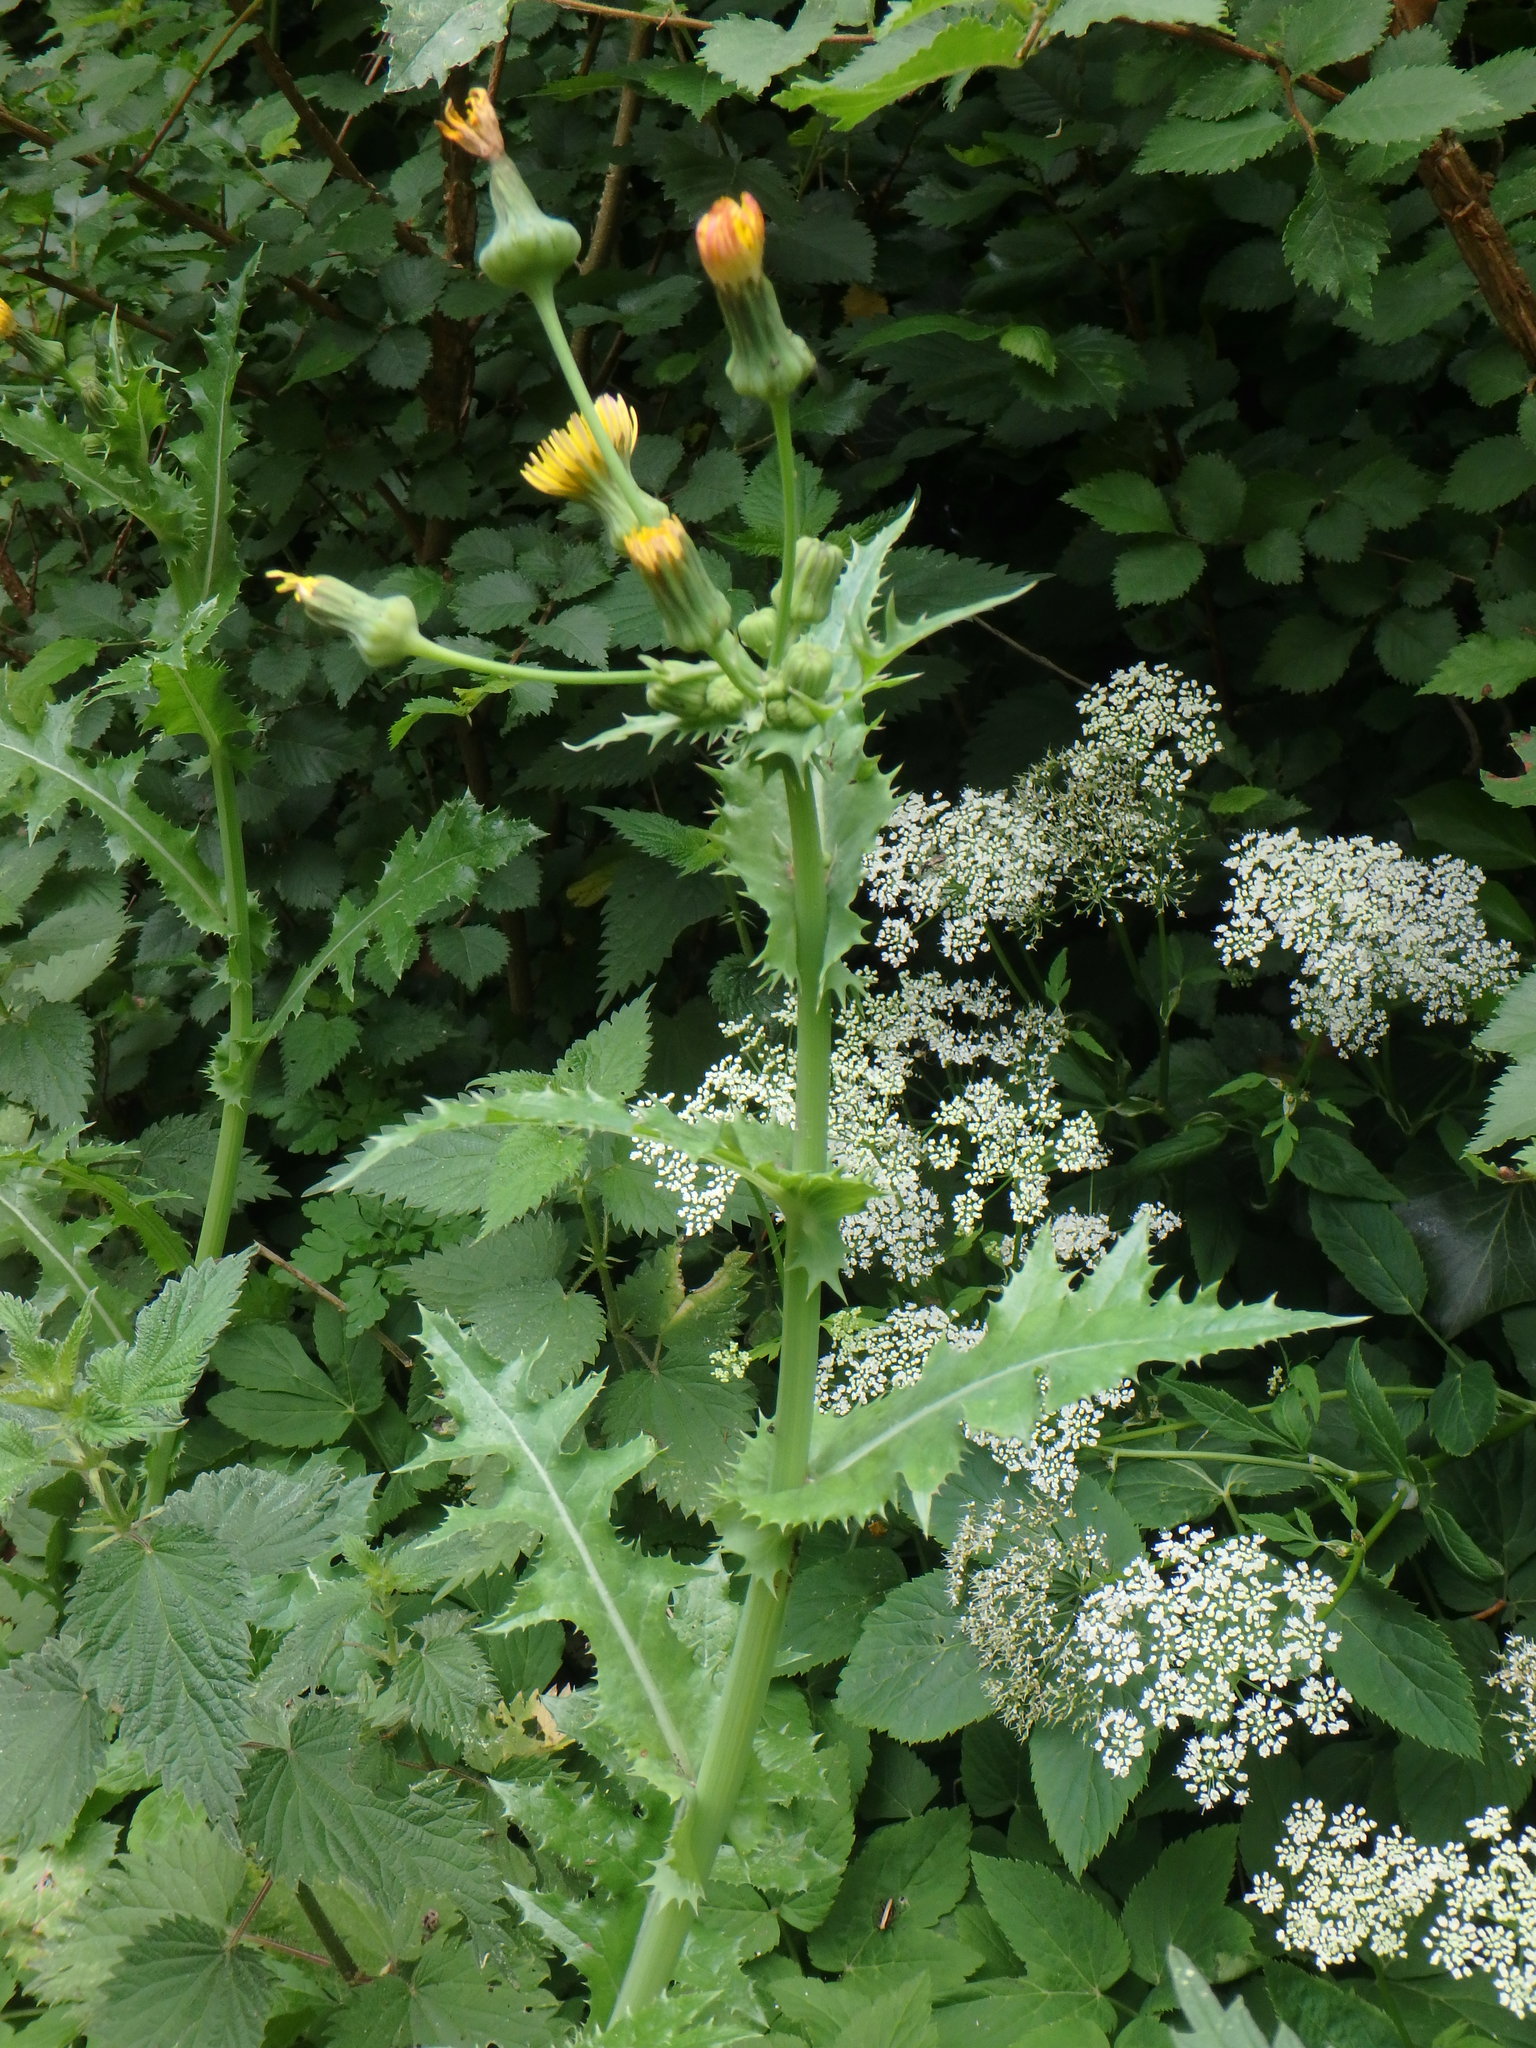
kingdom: Plantae
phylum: Tracheophyta
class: Magnoliopsida
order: Asterales
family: Asteraceae
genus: Sonchus
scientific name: Sonchus asper
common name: Prickly sow-thistle
